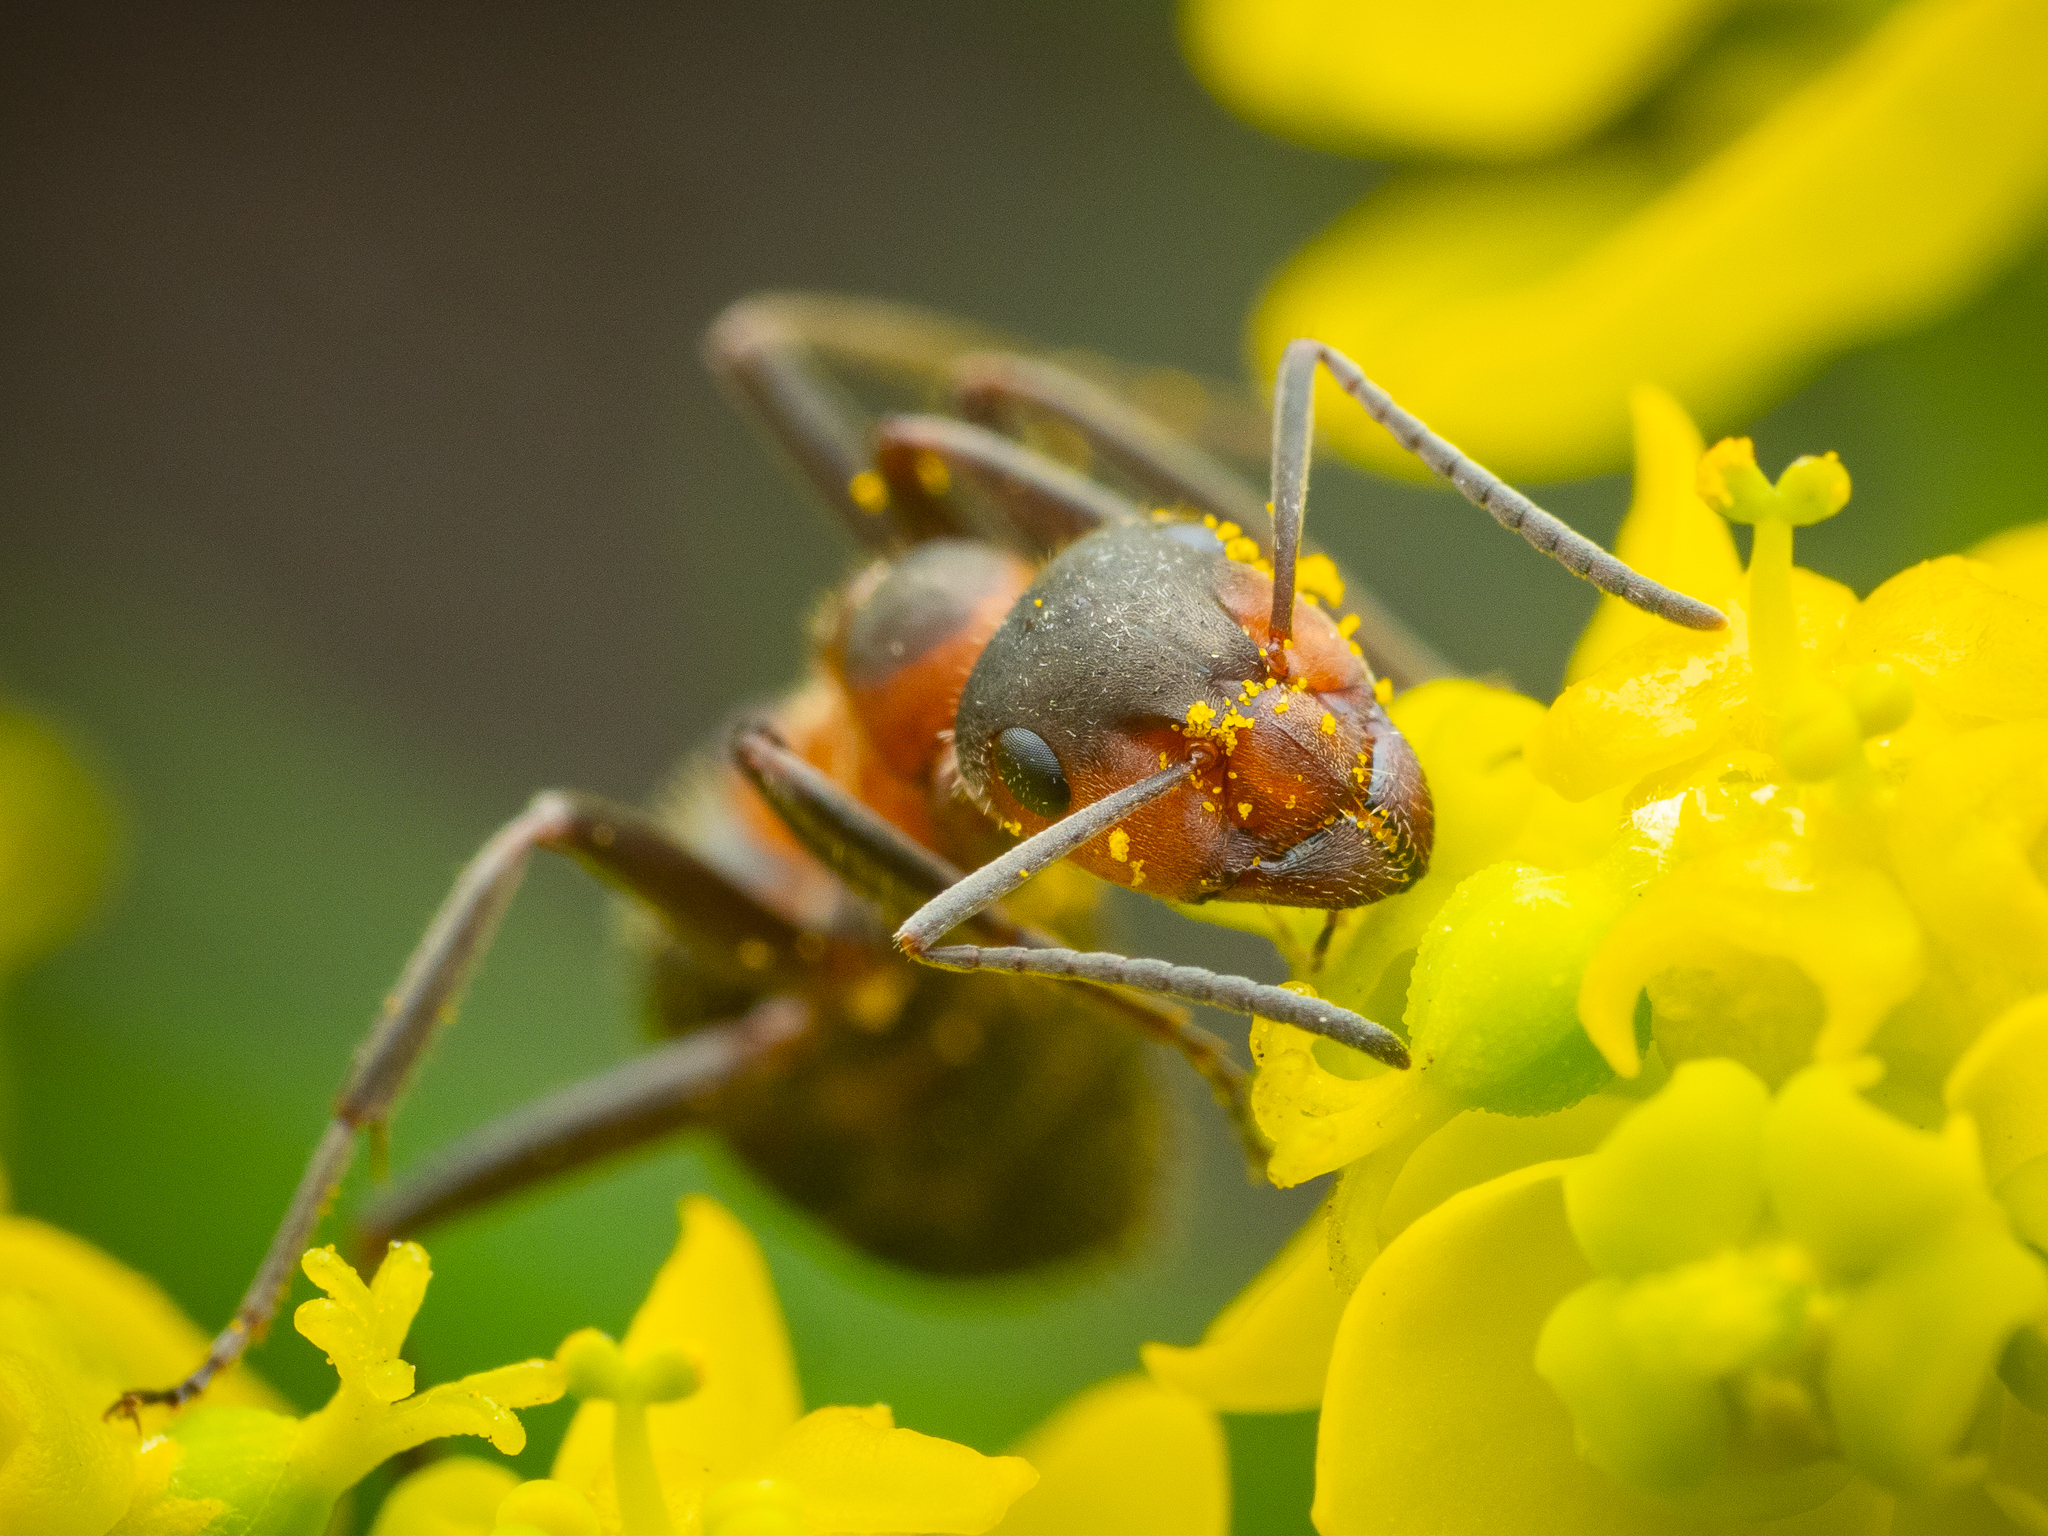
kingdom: Animalia
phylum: Arthropoda
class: Insecta
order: Hymenoptera
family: Formicidae
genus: Formica
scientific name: Formica pratensis
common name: European red wood ant
